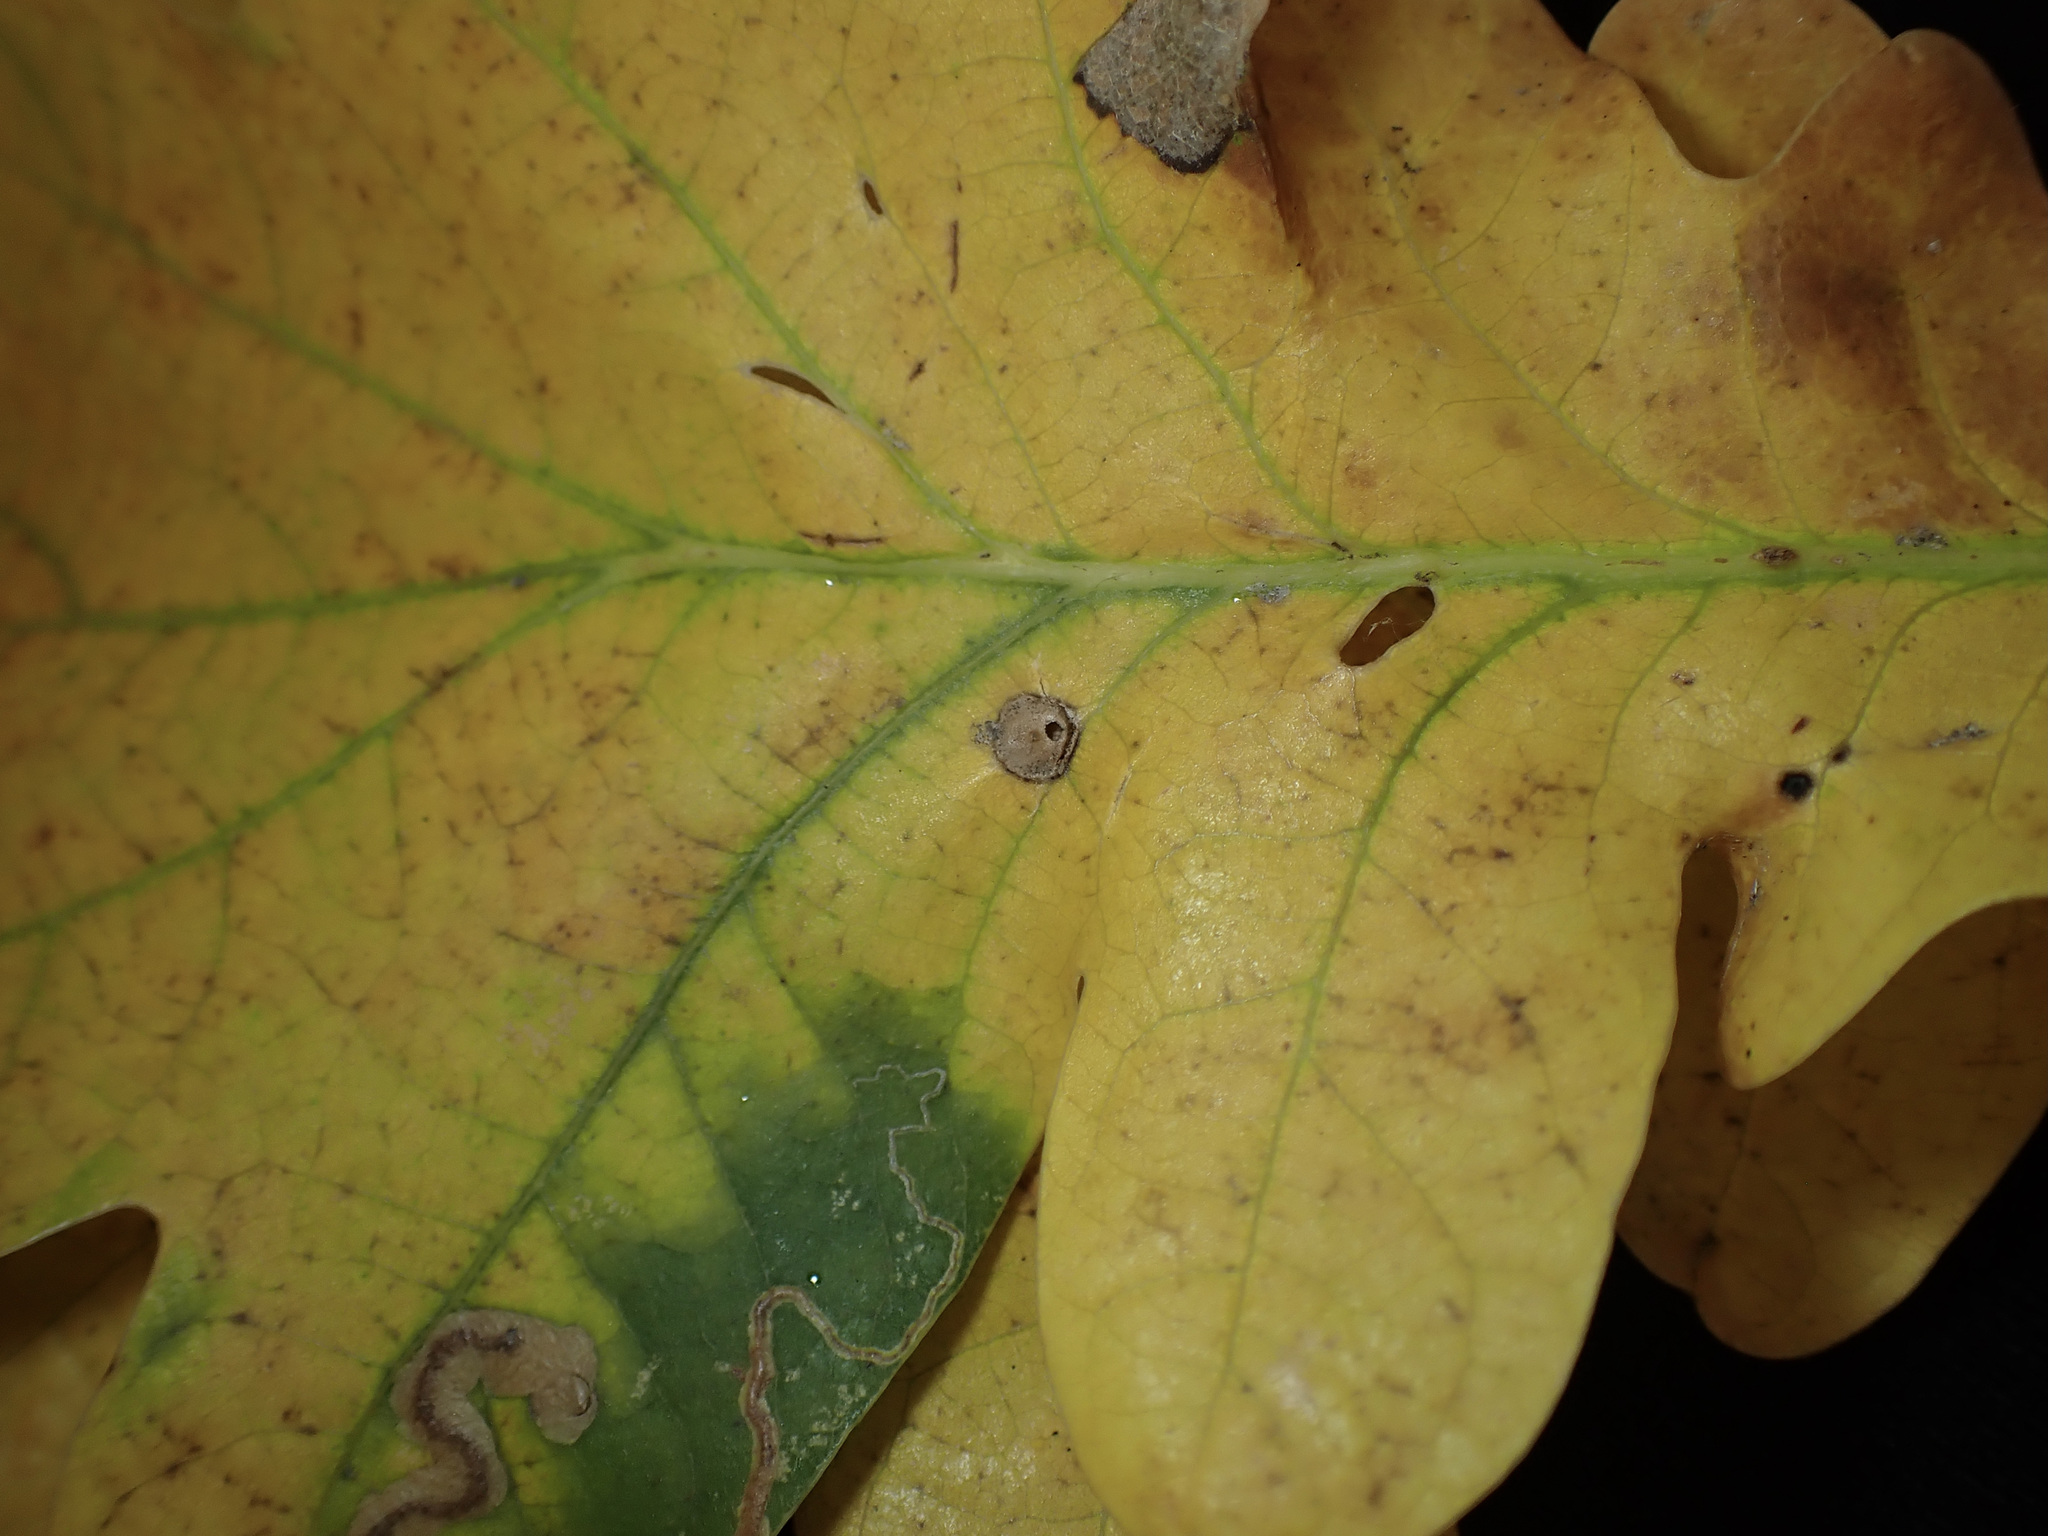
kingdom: Animalia
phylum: Arthropoda
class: Insecta
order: Hymenoptera
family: Cynipidae
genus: Neuroterus
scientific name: Neuroterus numismalis
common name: Silk-button spangle gall
